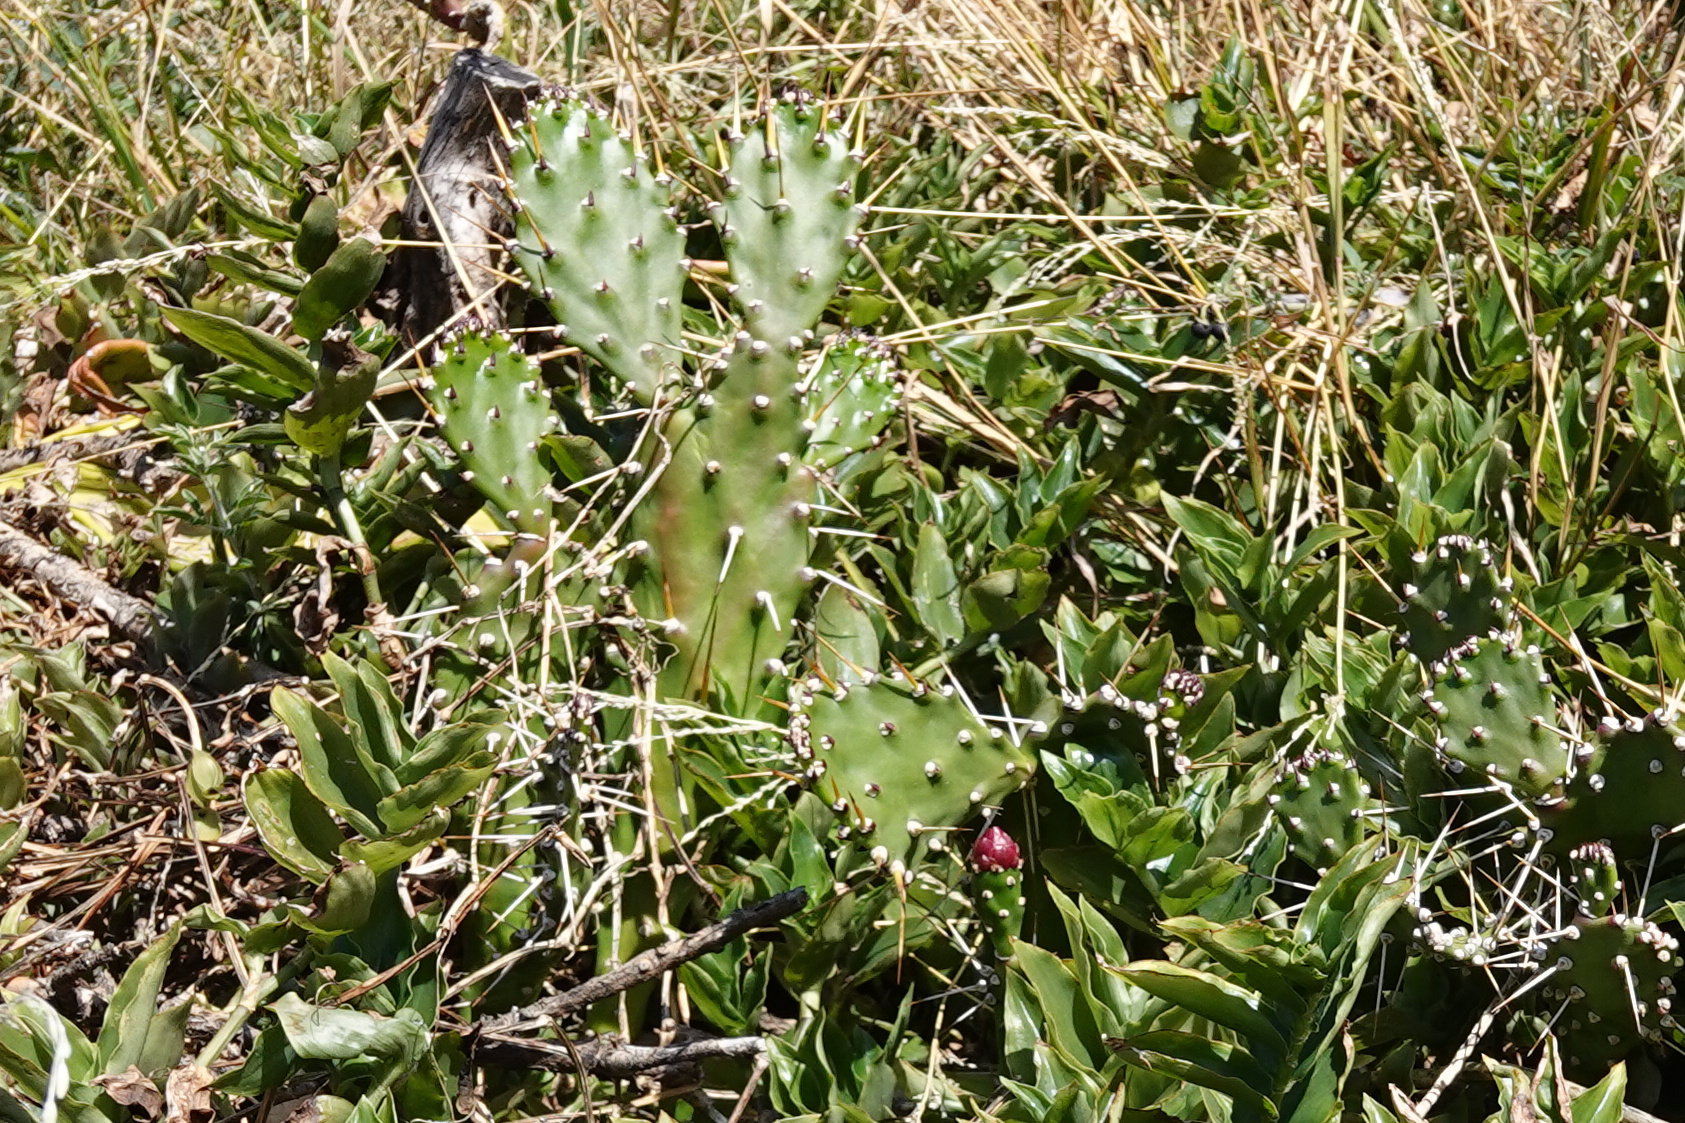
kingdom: Plantae
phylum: Tracheophyta
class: Magnoliopsida
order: Caryophyllales
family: Cactaceae
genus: Opuntia
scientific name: Opuntia monacantha
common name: Common pricklypear
